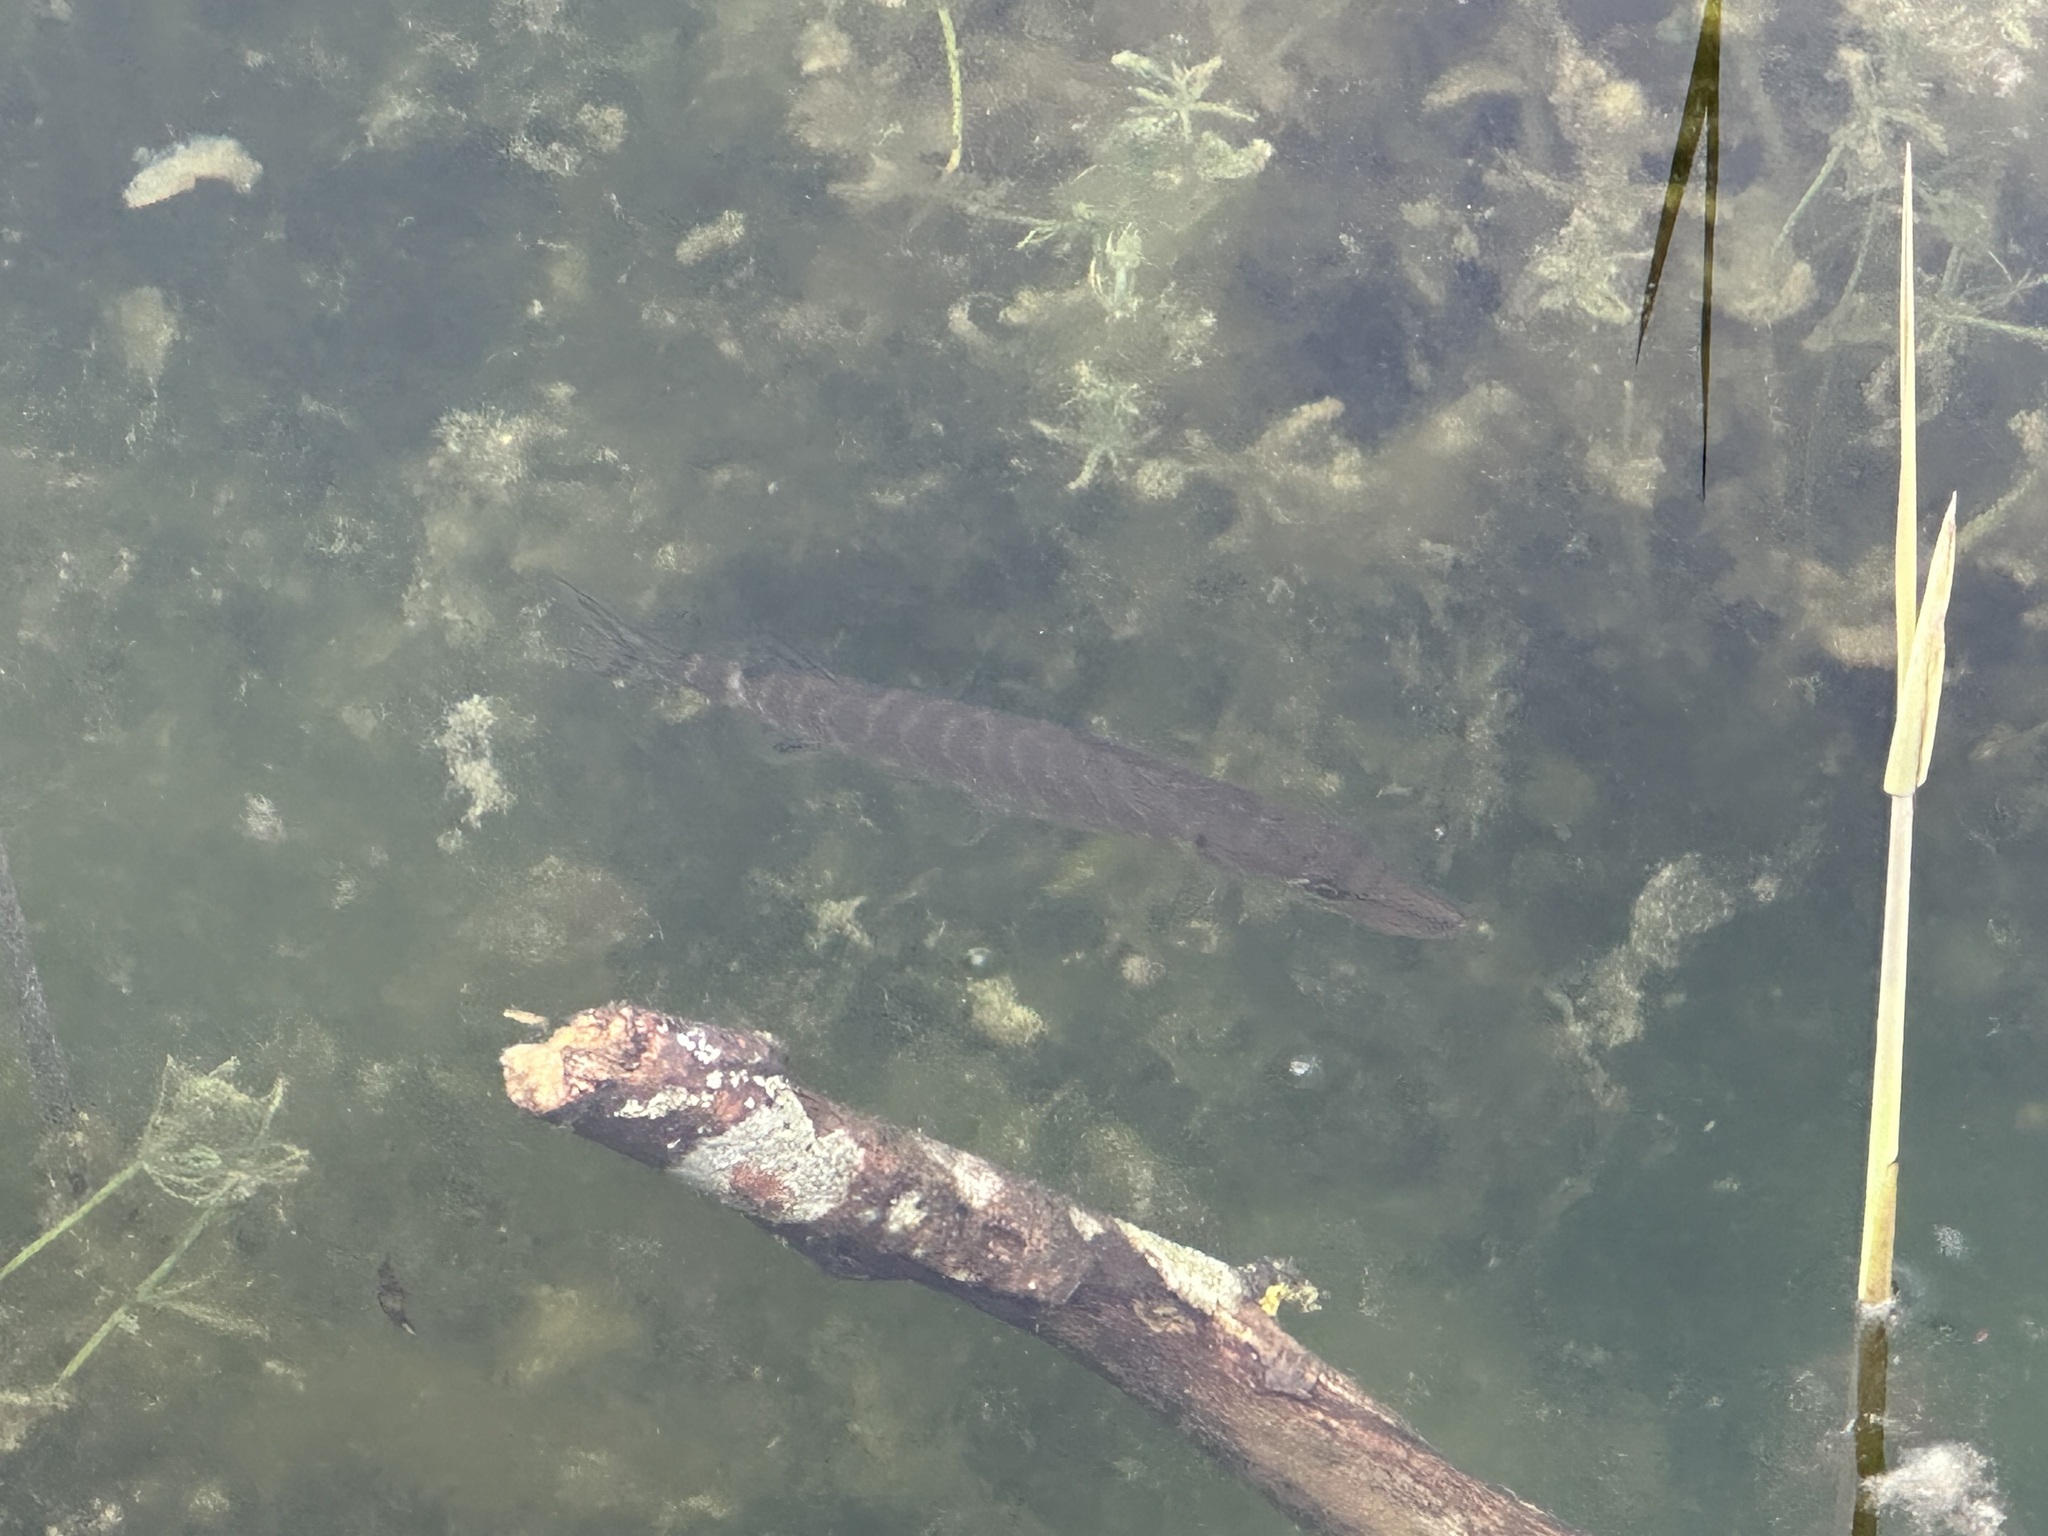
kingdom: Animalia
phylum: Chordata
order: Esociformes
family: Esocidae
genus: Esox
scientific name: Esox lucius
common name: Northern pike
